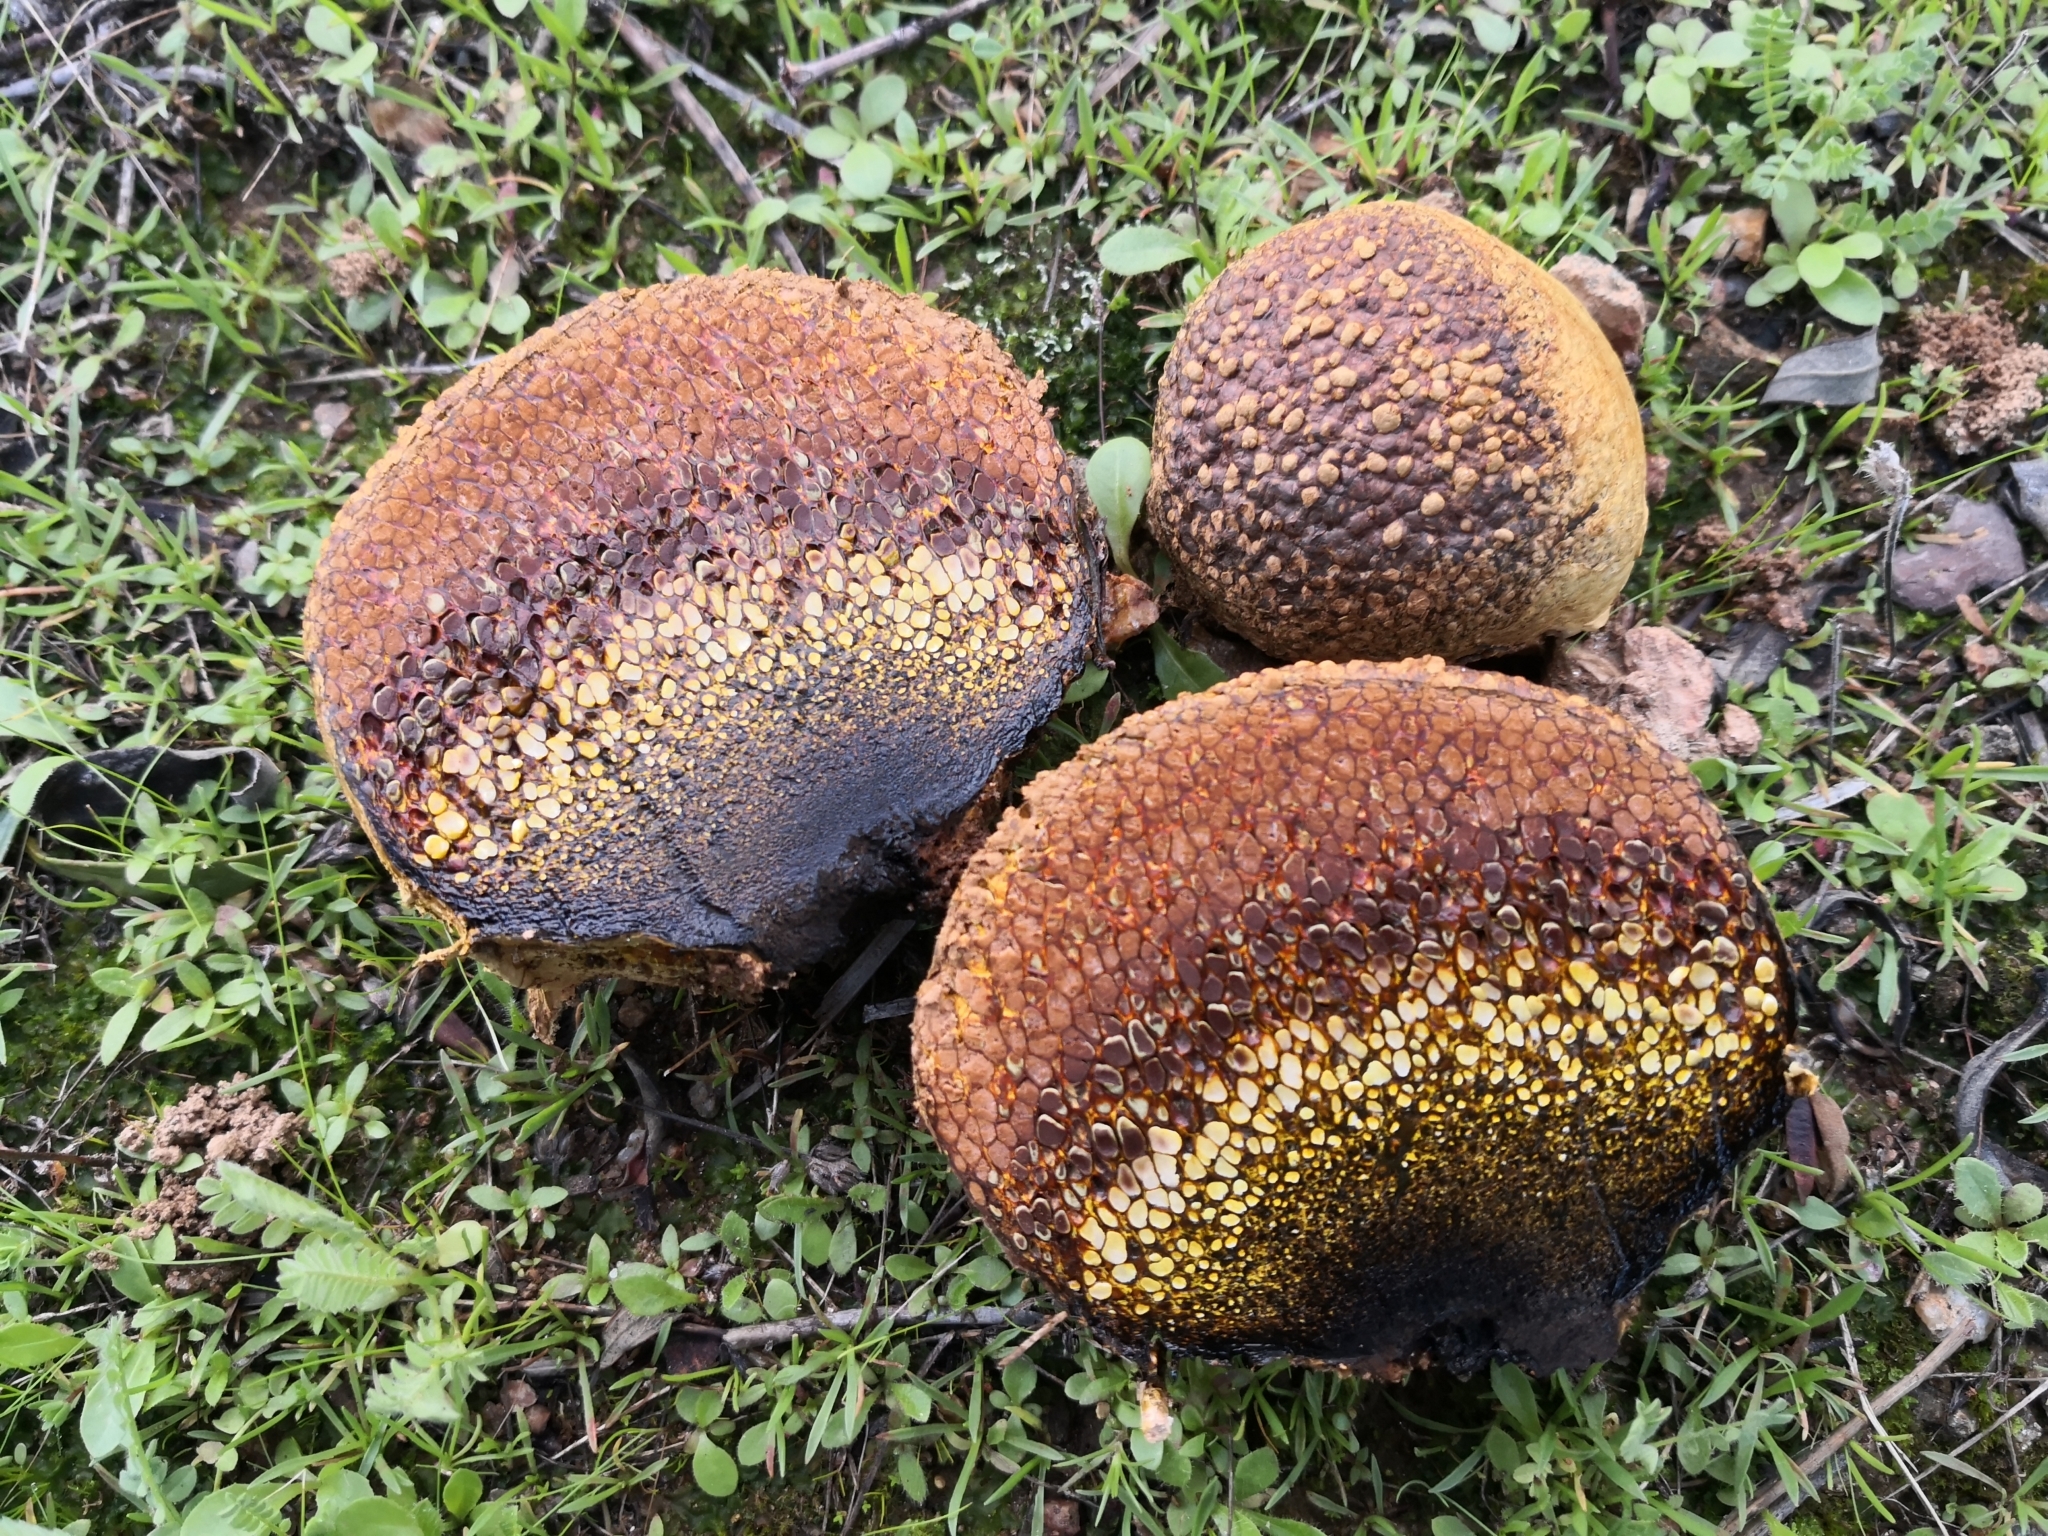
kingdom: Fungi
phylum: Basidiomycota
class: Agaricomycetes
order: Boletales
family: Sclerodermataceae
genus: Pisolithus
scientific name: Pisolithus arhizus
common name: Dyeball
